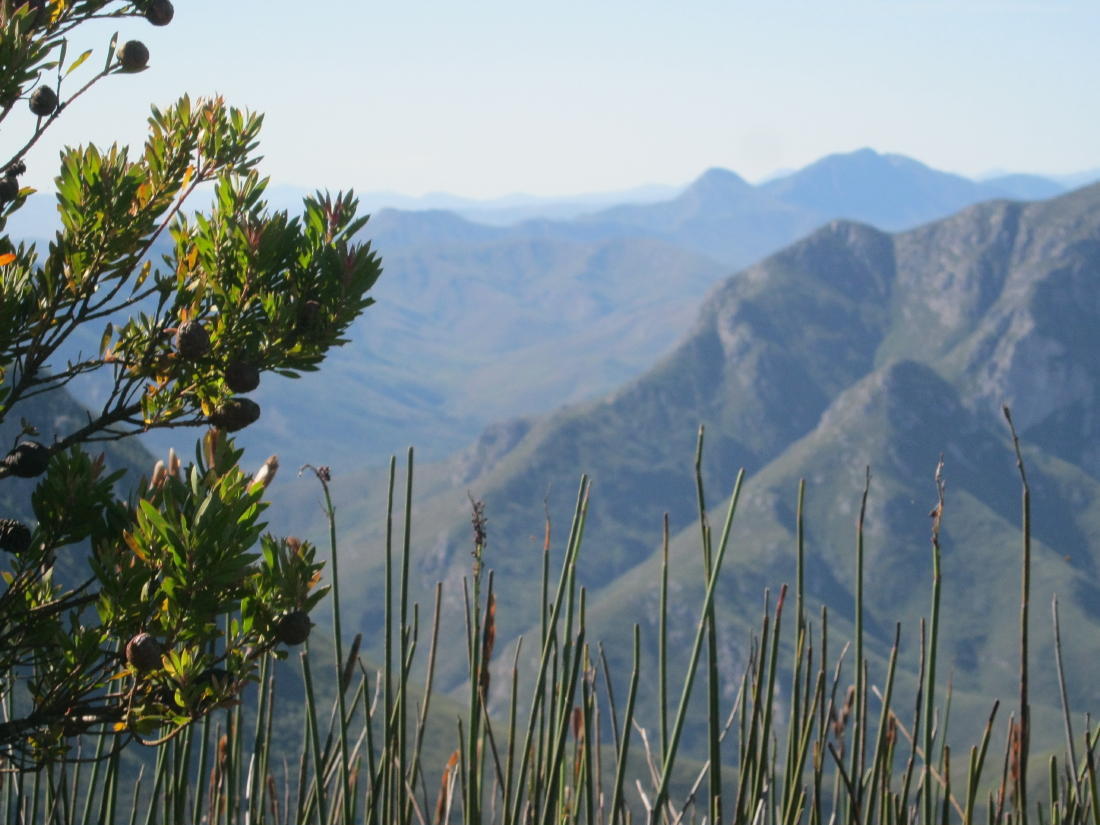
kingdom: Plantae
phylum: Tracheophyta
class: Magnoliopsida
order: Proteales
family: Proteaceae
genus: Leucadendron
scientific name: Leucadendron conicum
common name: Garden route conebush
